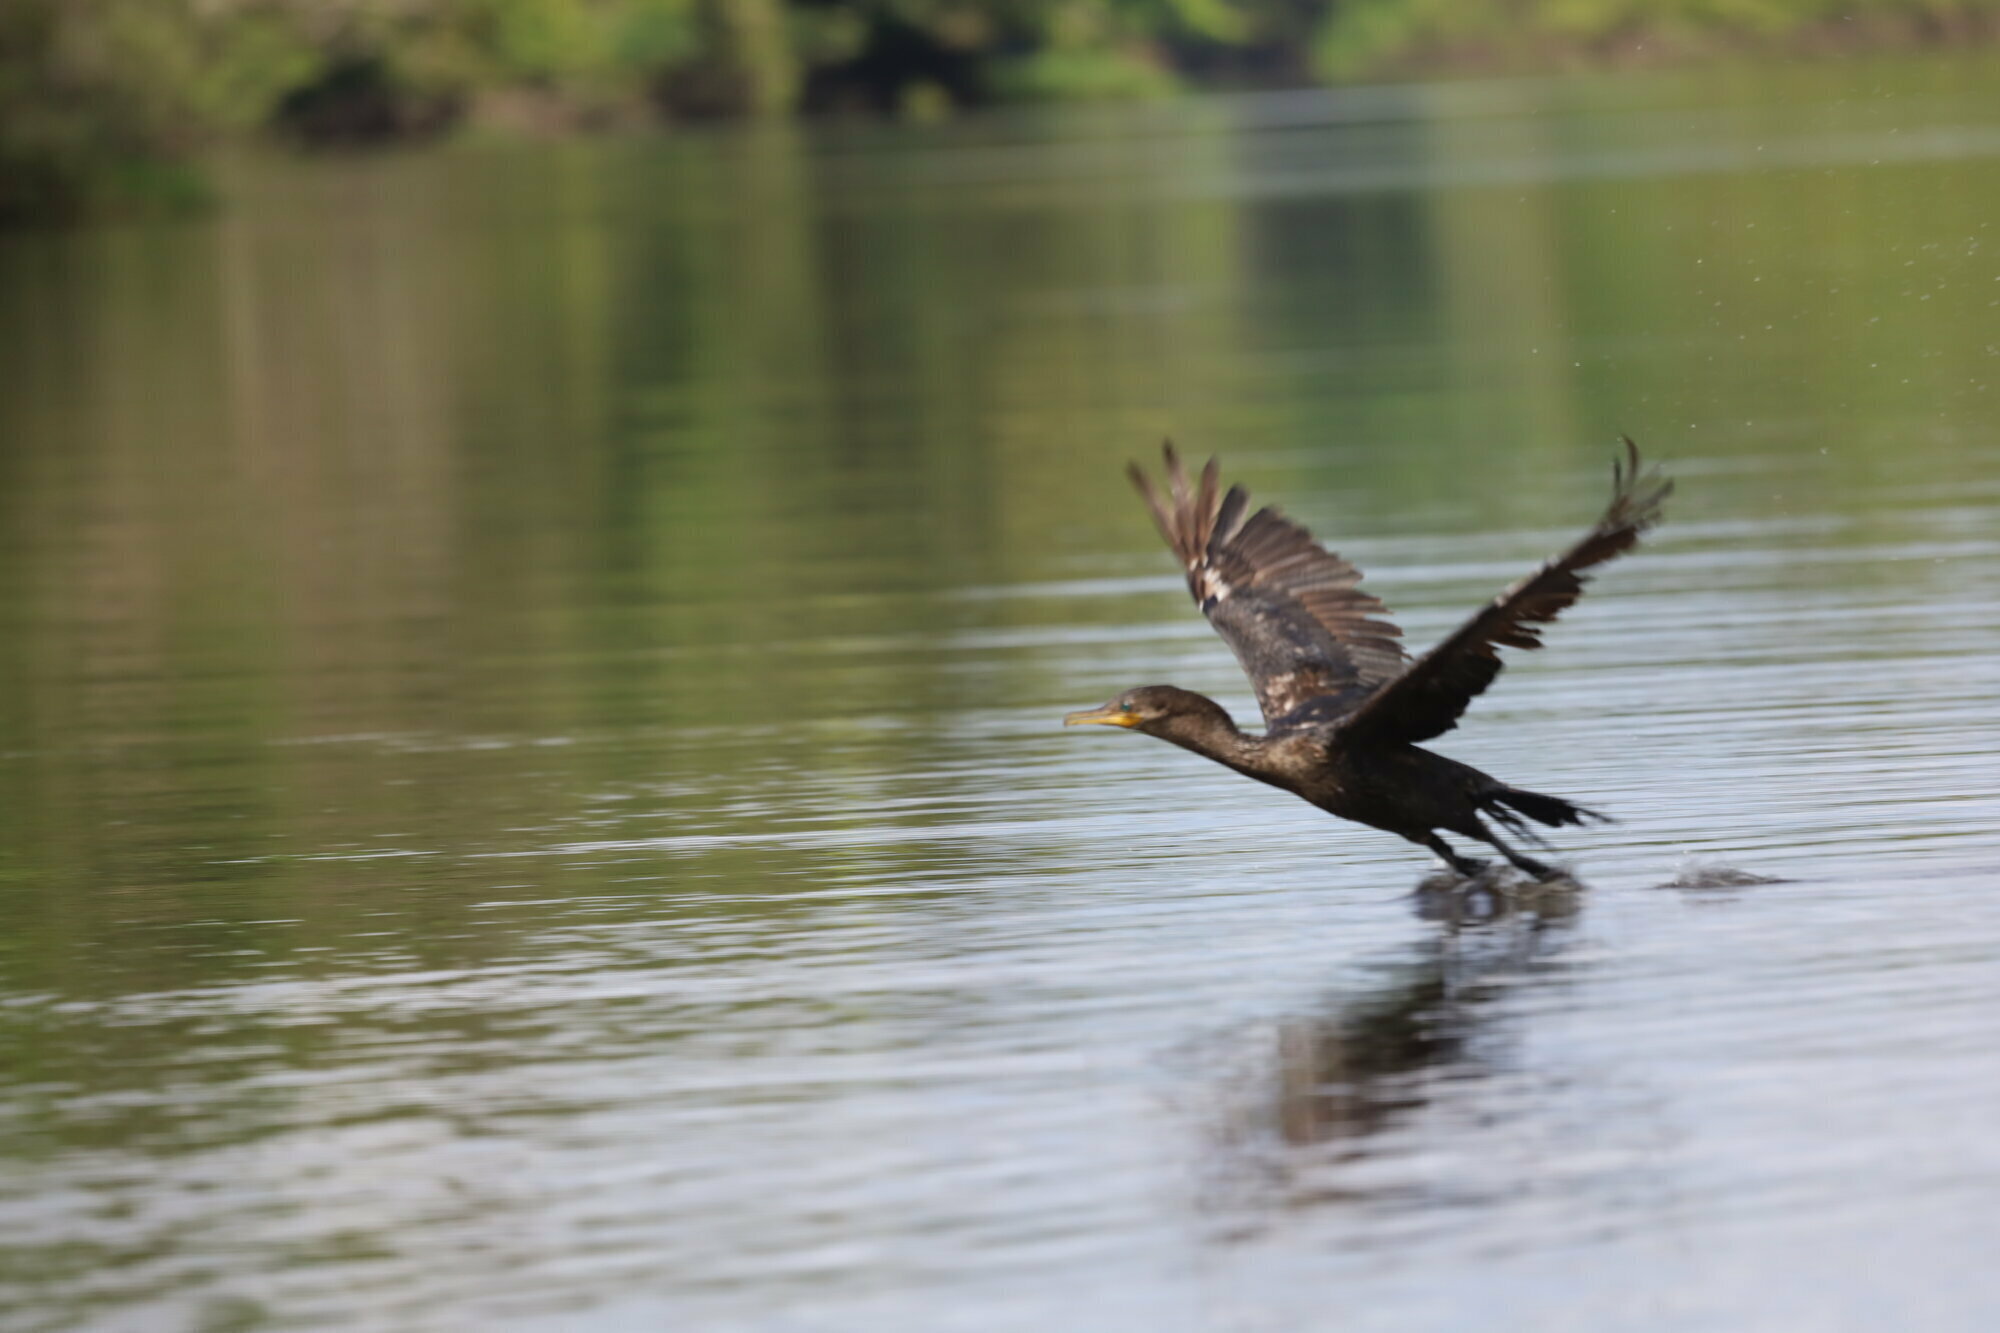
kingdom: Animalia
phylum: Chordata
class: Aves
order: Suliformes
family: Phalacrocoracidae
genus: Phalacrocorax
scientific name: Phalacrocorax brasilianus
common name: Neotropic cormorant
